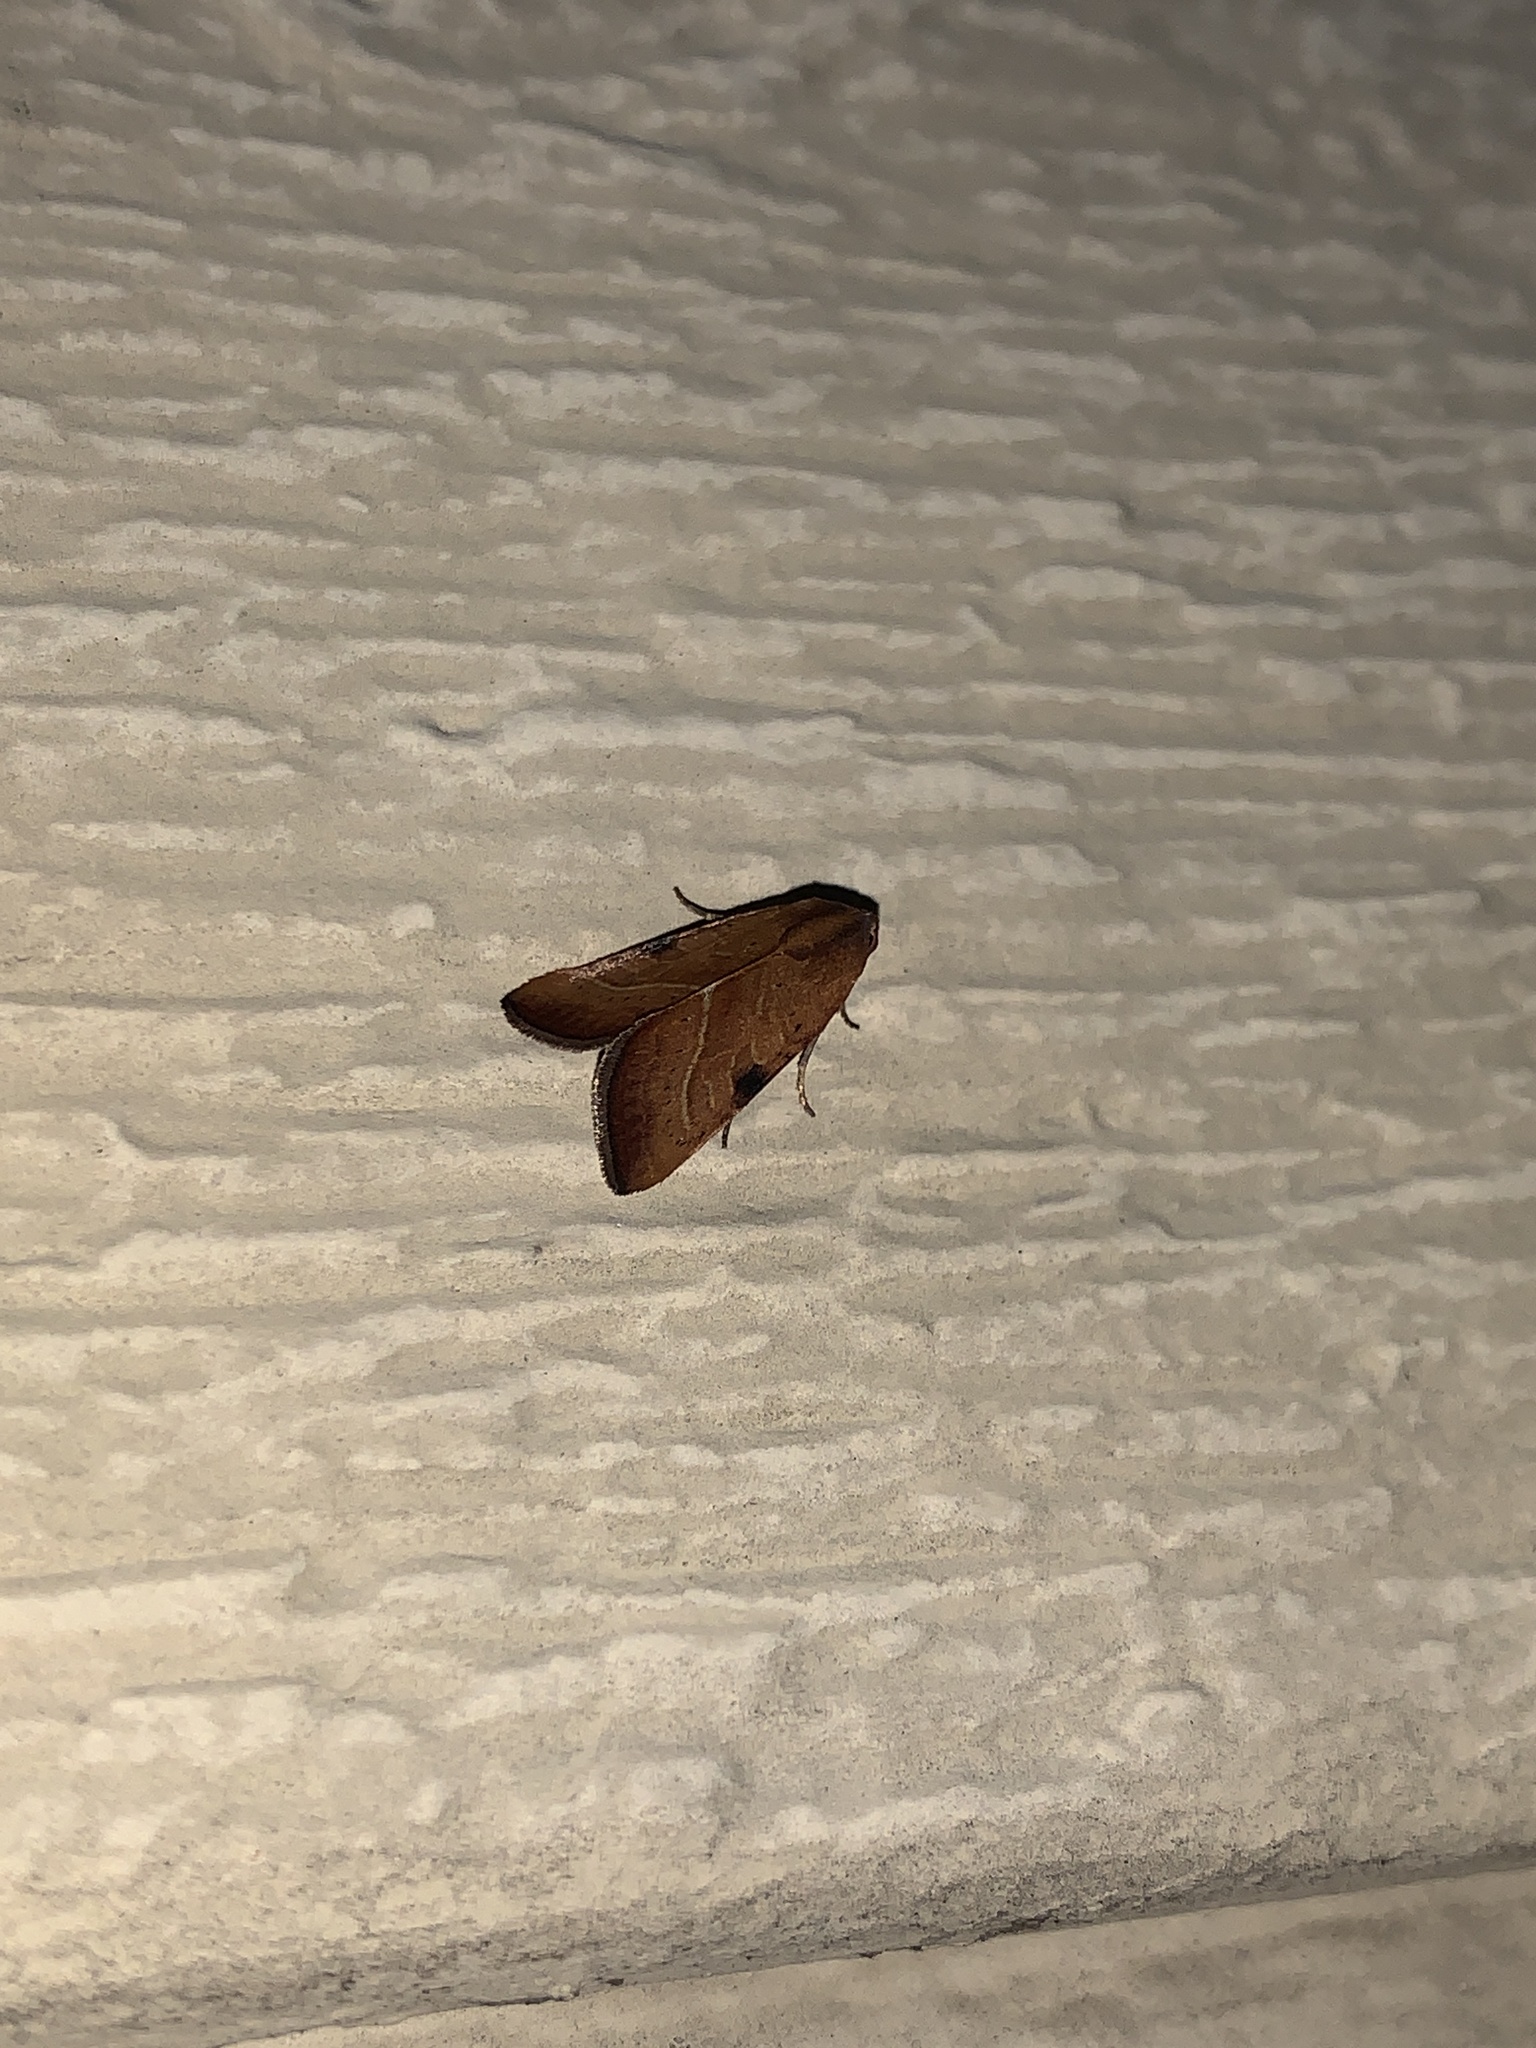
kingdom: Animalia
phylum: Arthropoda
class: Insecta
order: Lepidoptera
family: Noctuidae
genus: Galgula
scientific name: Galgula partita
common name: Wedgeling
